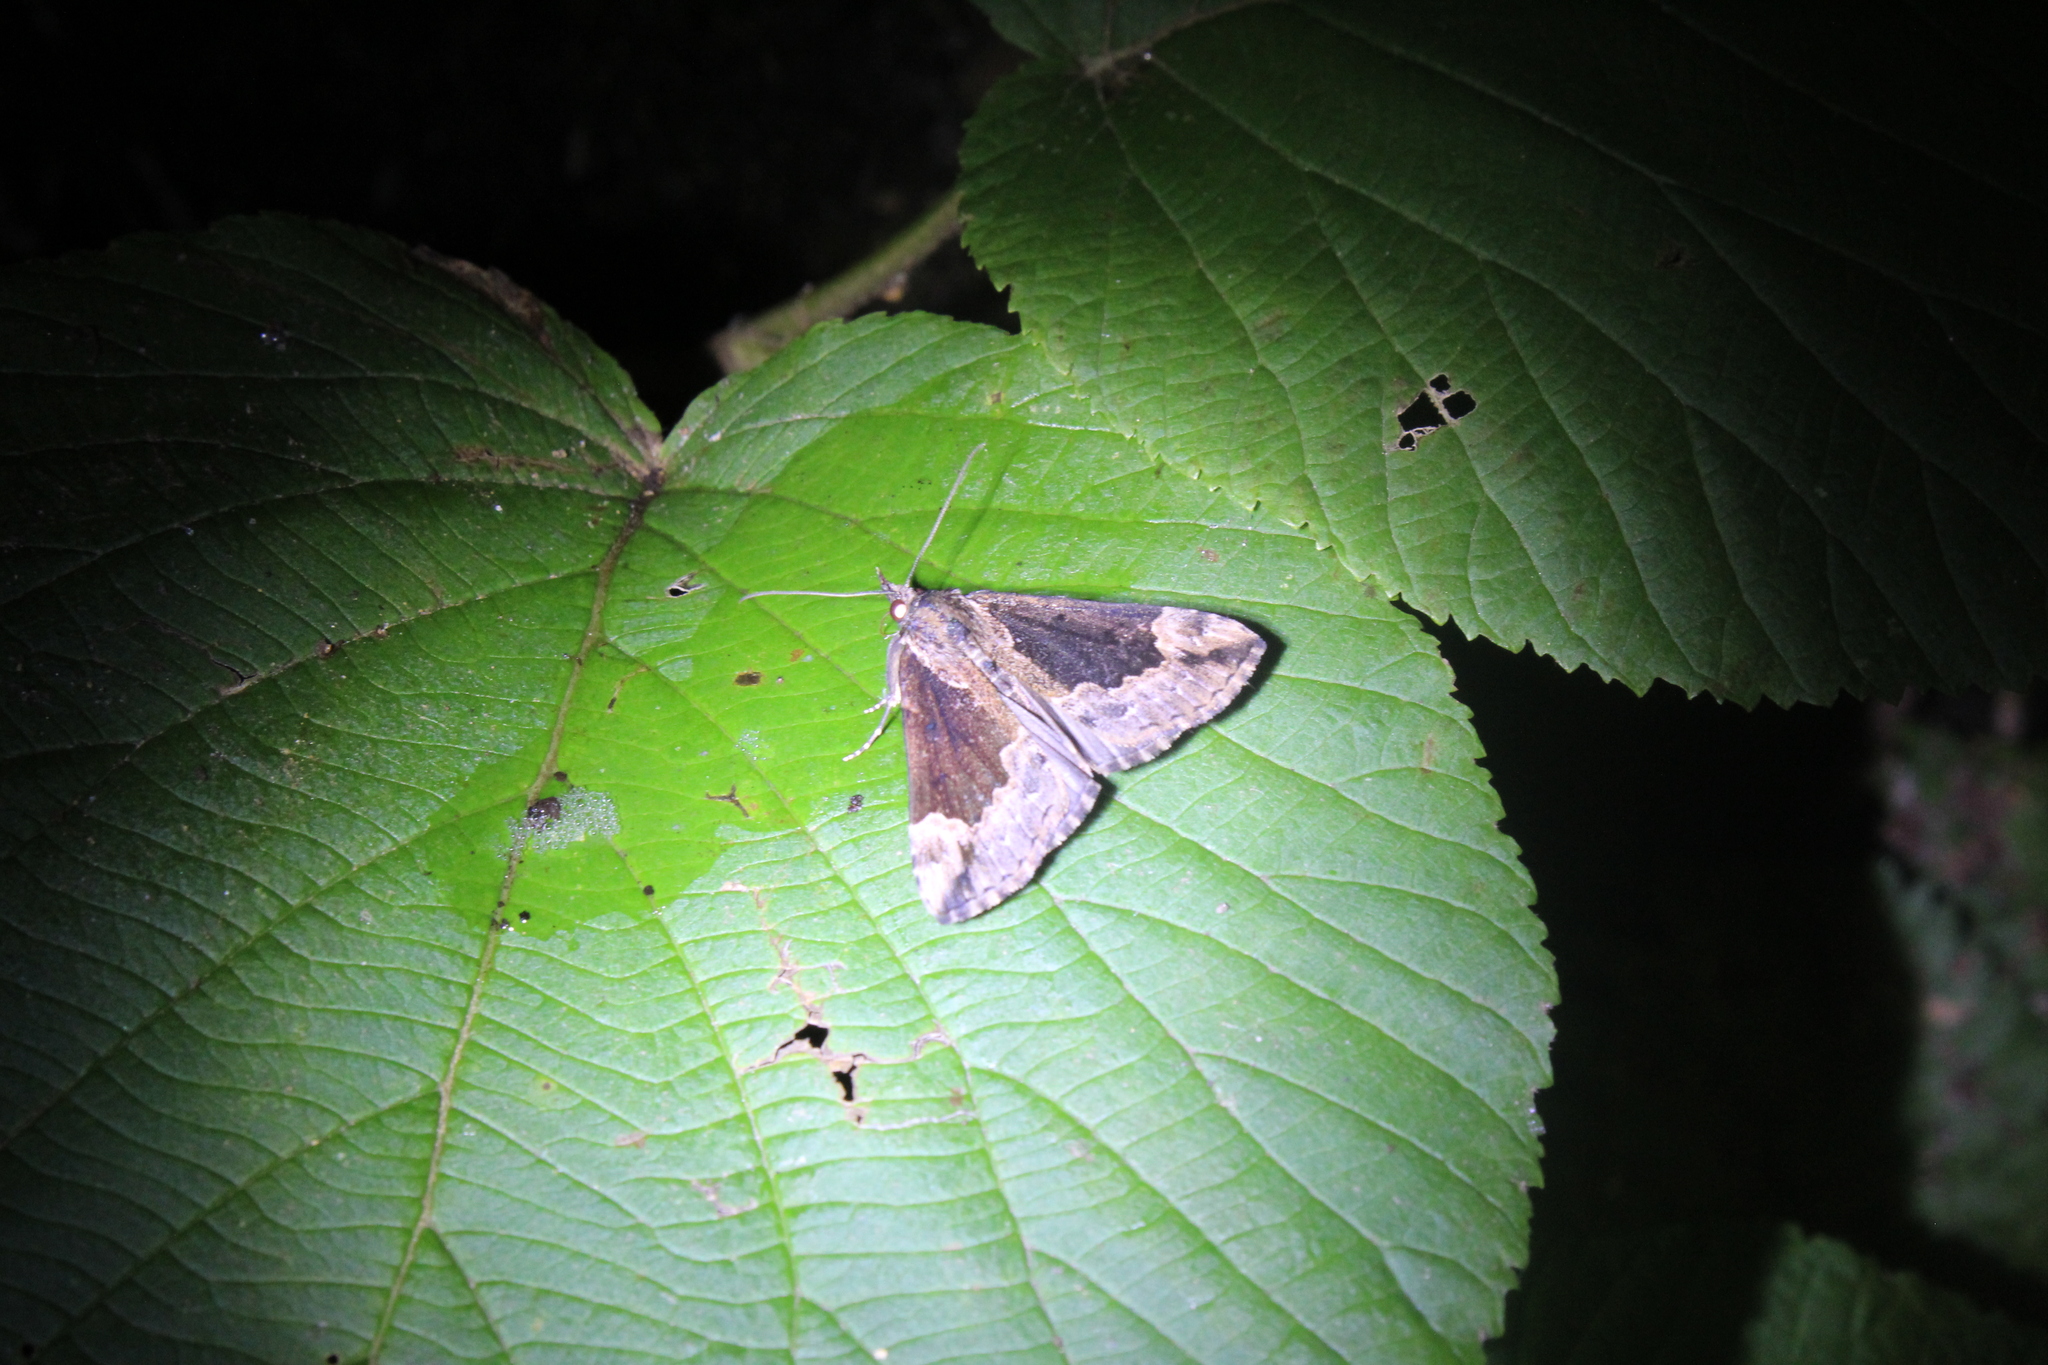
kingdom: Animalia
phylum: Arthropoda
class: Insecta
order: Lepidoptera
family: Erebidae
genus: Hypena
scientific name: Hypena baltimoralis
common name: Baltimore snout
